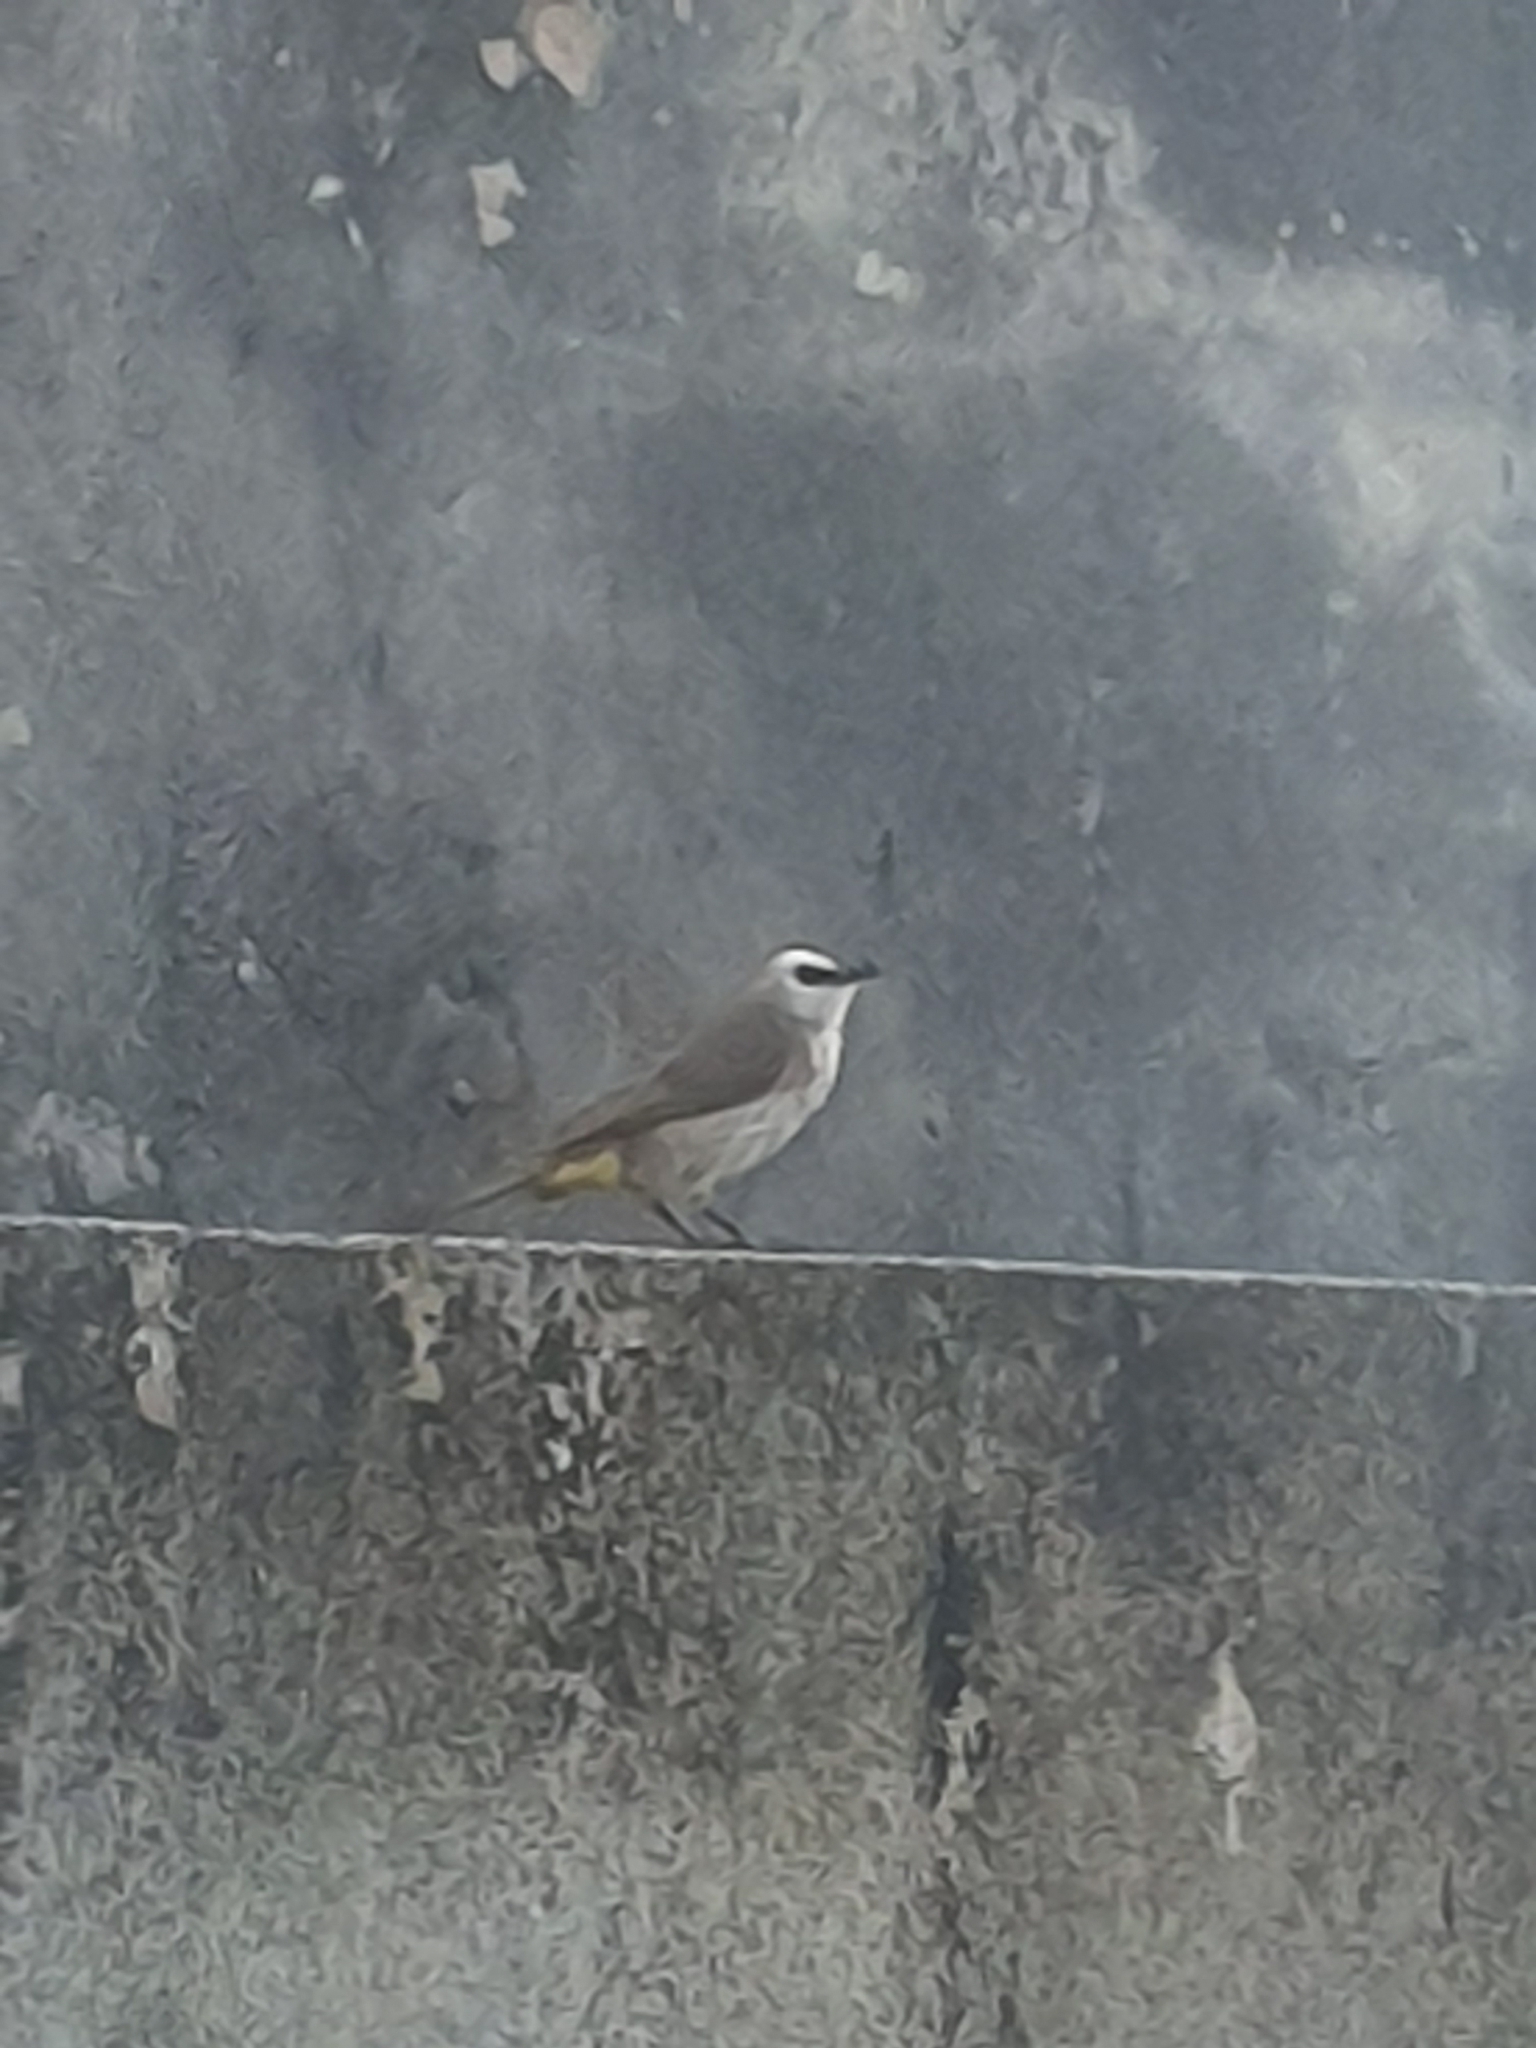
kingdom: Animalia
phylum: Chordata
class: Aves
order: Passeriformes
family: Pycnonotidae
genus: Pycnonotus
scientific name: Pycnonotus goiavier
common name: Yellow-vented bulbul
